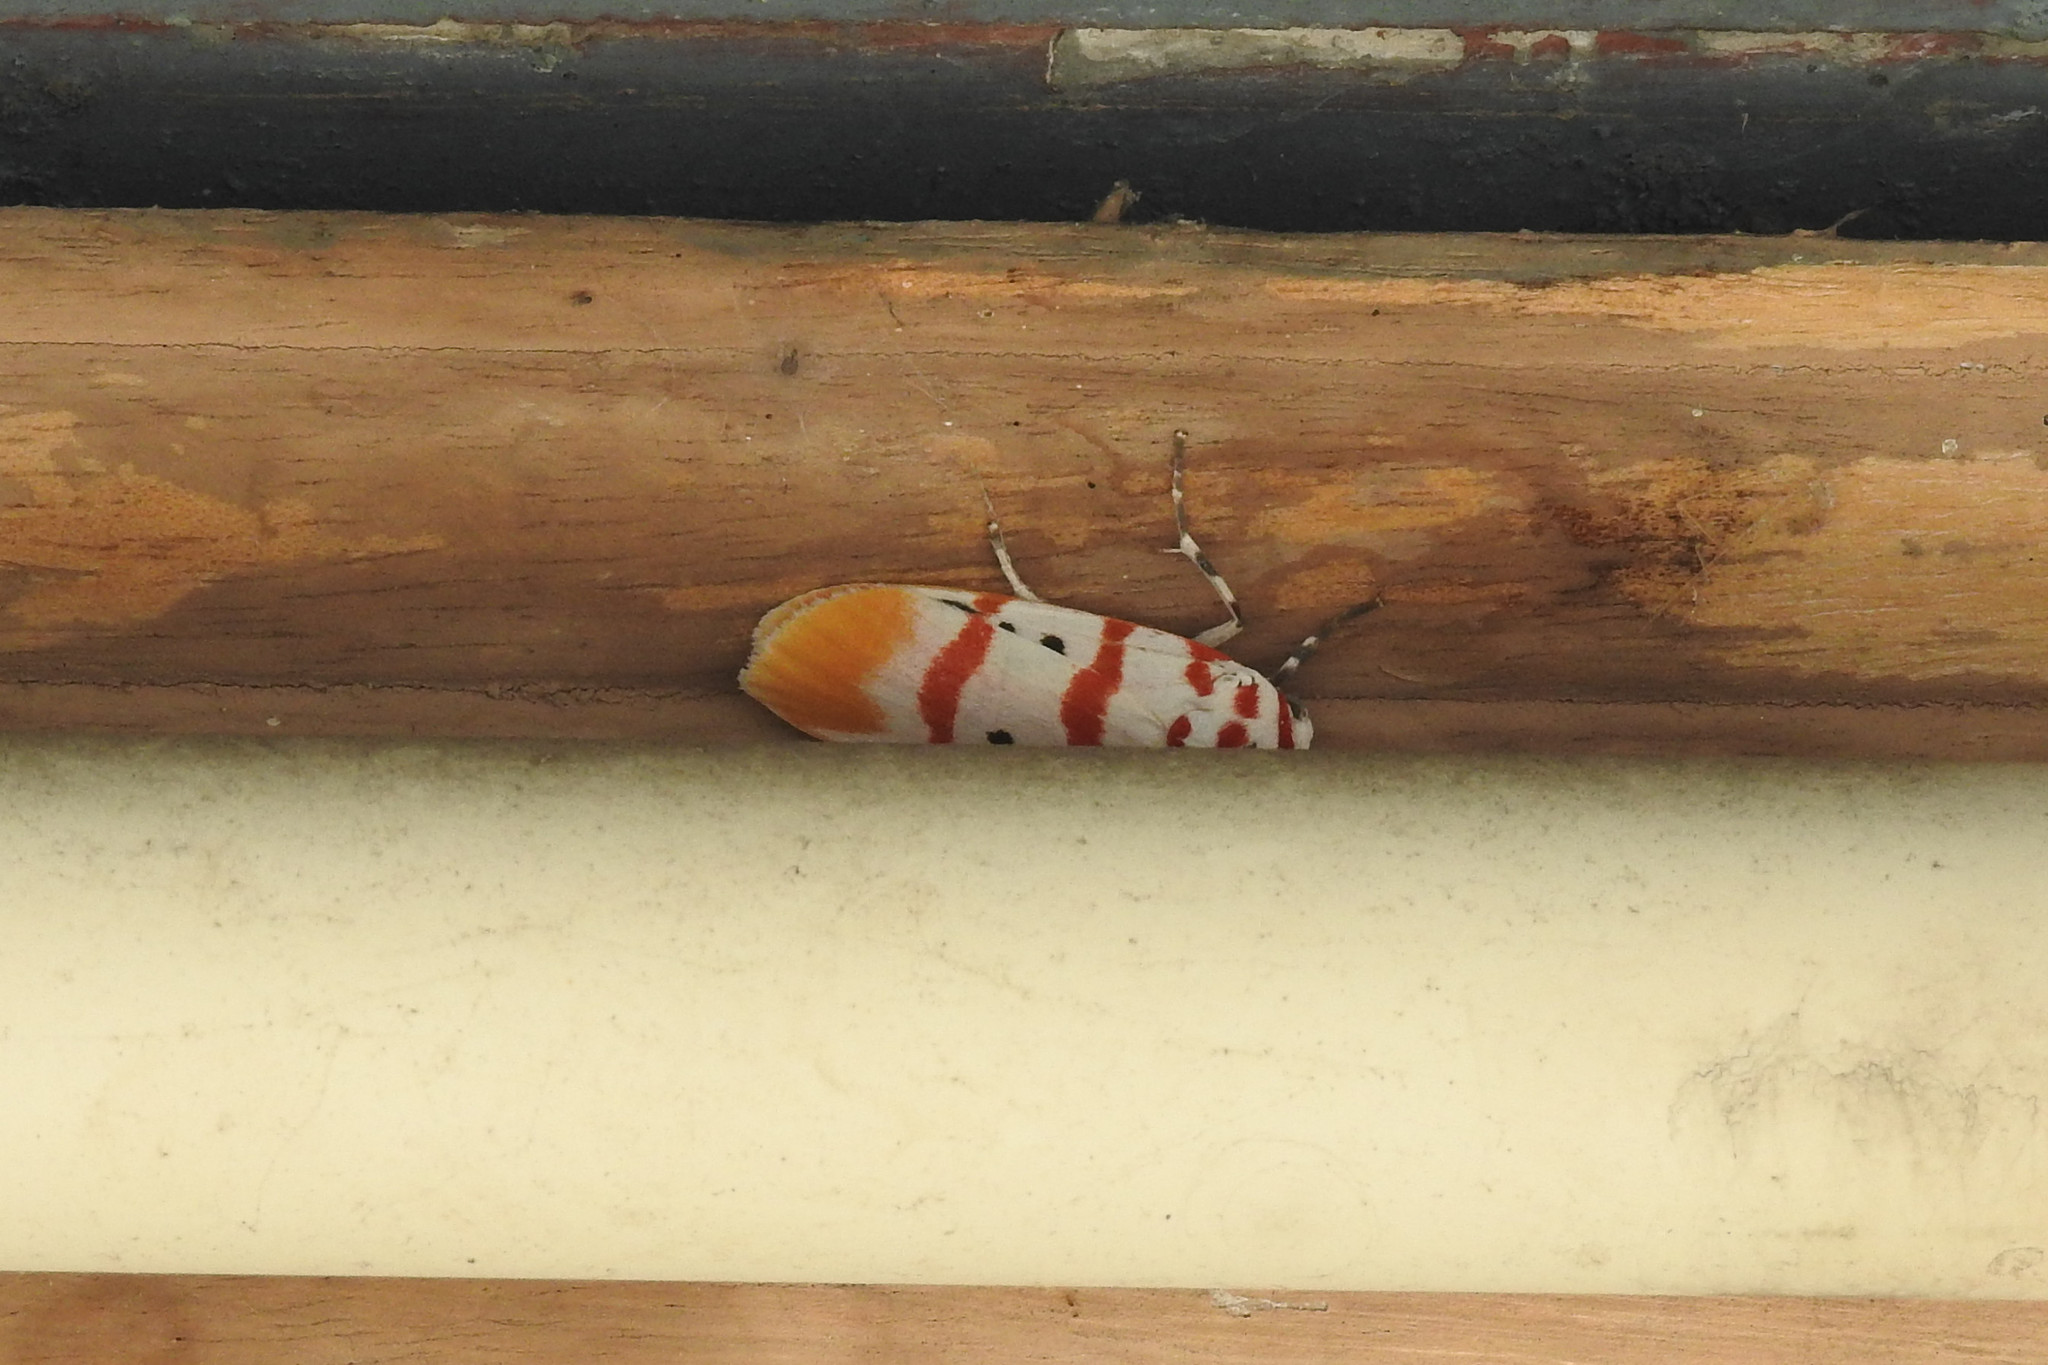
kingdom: Animalia
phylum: Arthropoda
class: Insecta
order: Lepidoptera
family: Erebidae
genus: Cyana
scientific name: Cyana bellissima
